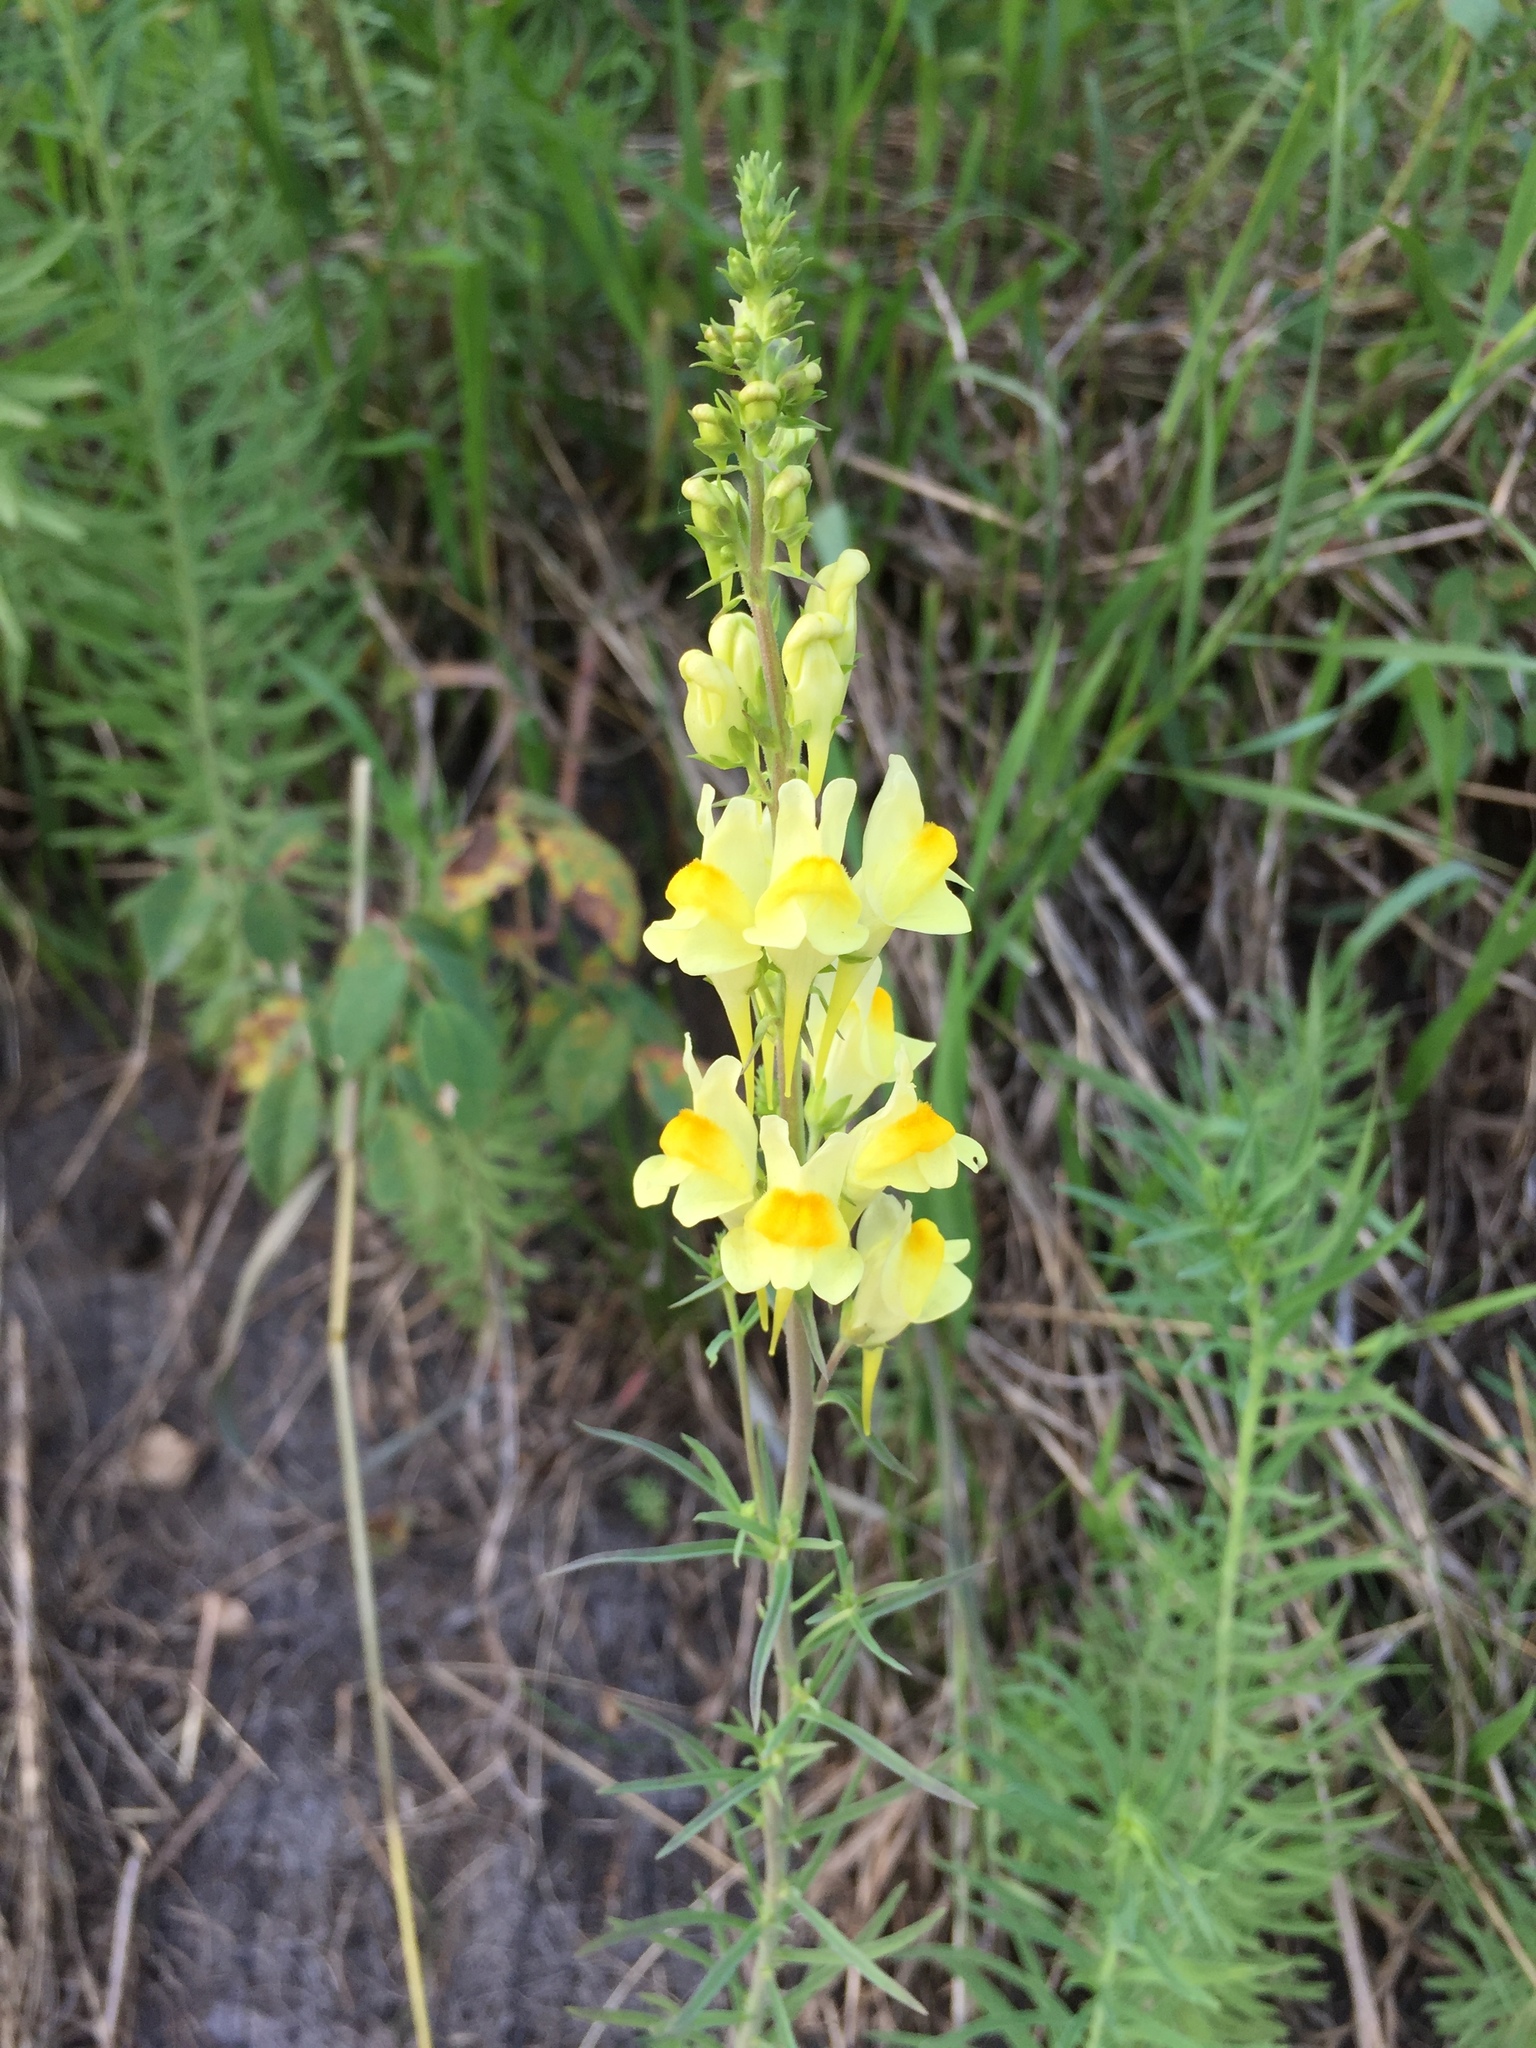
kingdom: Plantae
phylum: Tracheophyta
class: Magnoliopsida
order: Lamiales
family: Plantaginaceae
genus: Linaria
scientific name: Linaria vulgaris
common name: Butter and eggs
